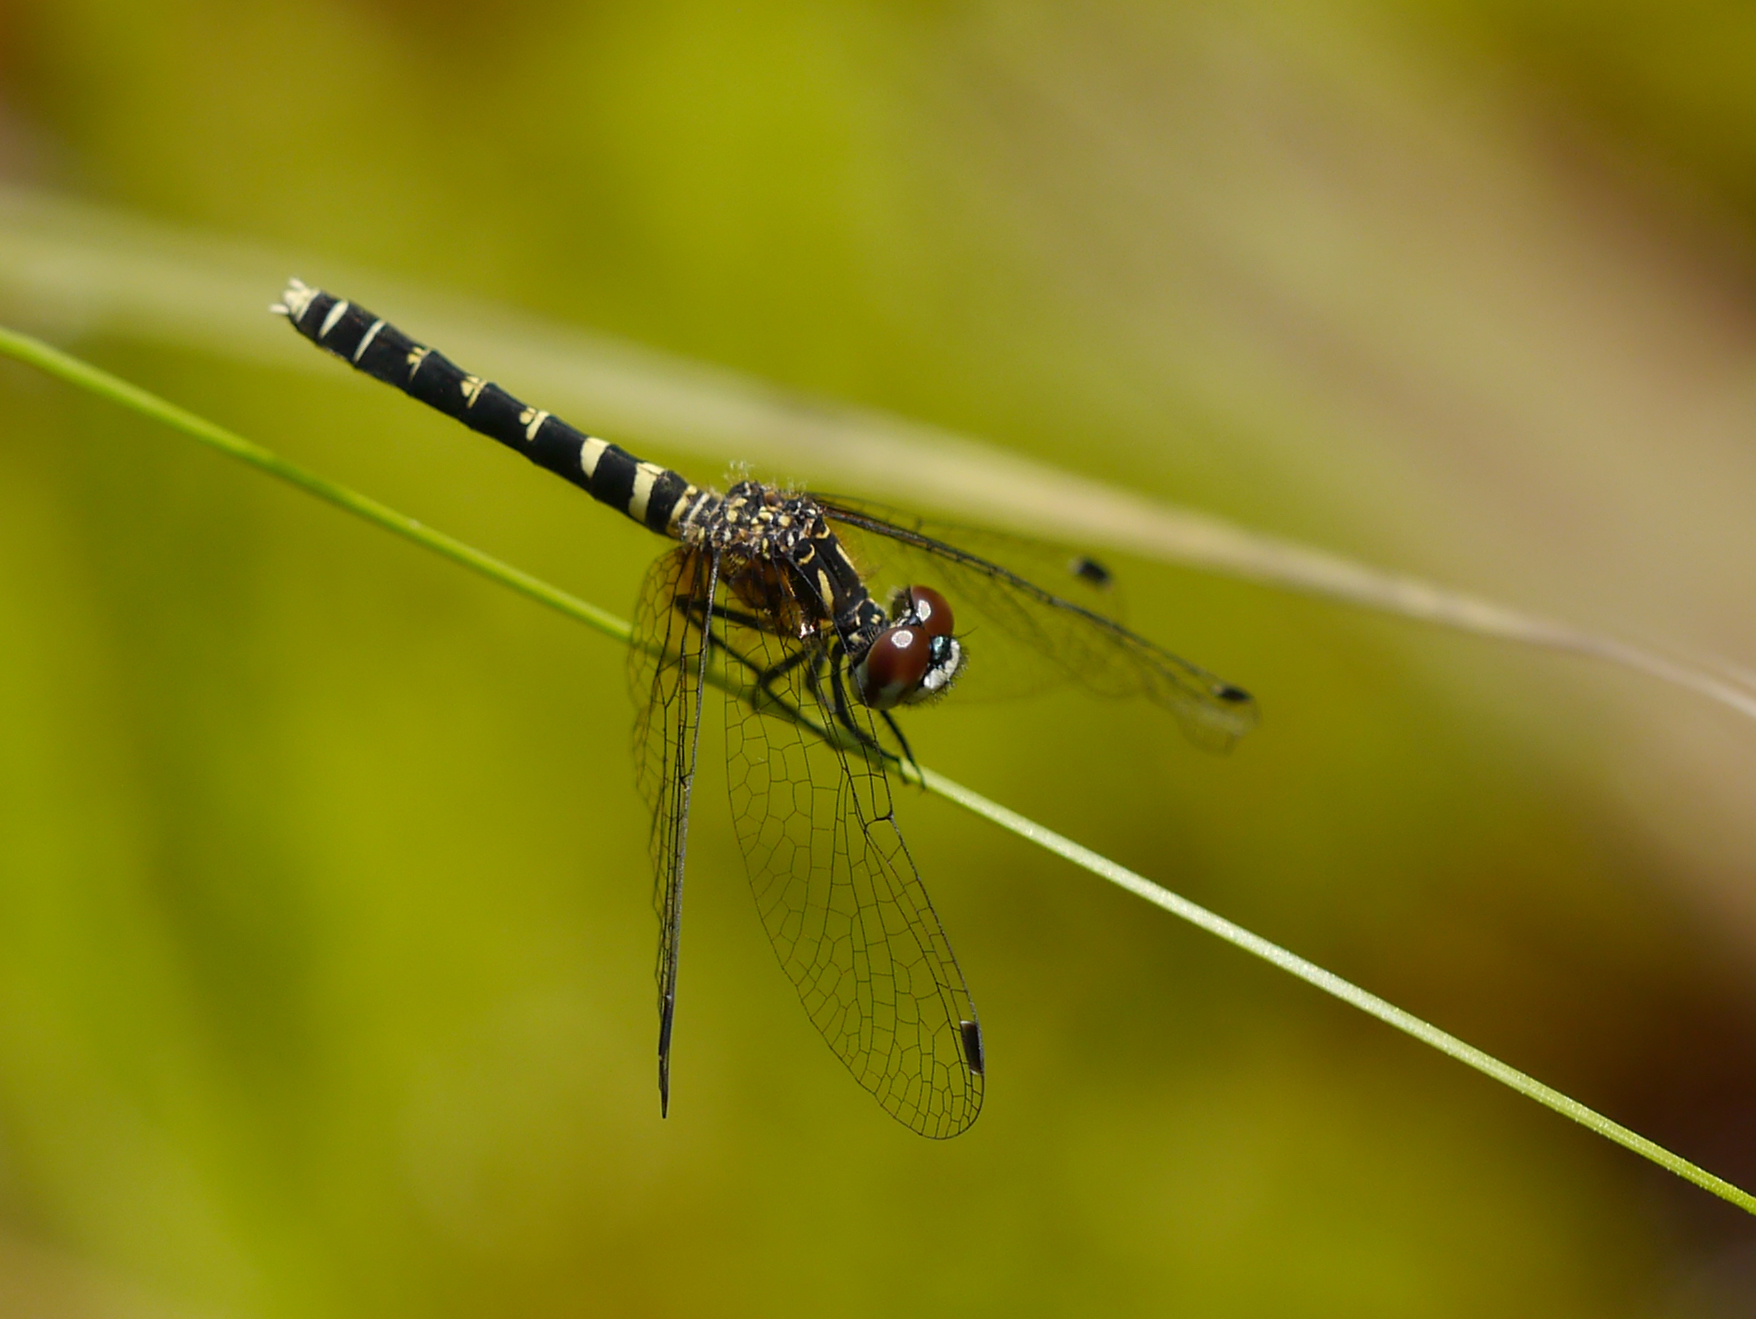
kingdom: Animalia
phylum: Arthropoda
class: Insecta
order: Odonata
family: Libellulidae
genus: Nannothemis
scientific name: Nannothemis bella
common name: Elfin skimmer
